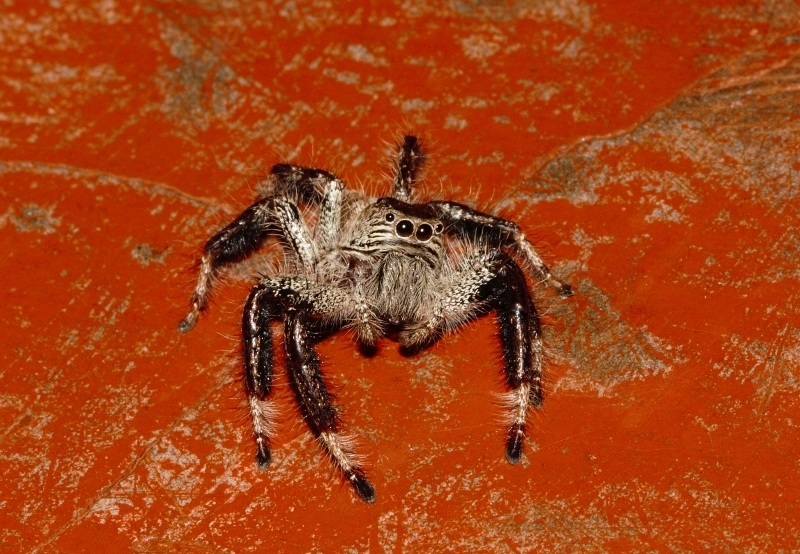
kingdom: Animalia
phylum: Arthropoda
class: Arachnida
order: Araneae
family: Salticidae
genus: Hyllus
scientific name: Hyllus treleaveni
